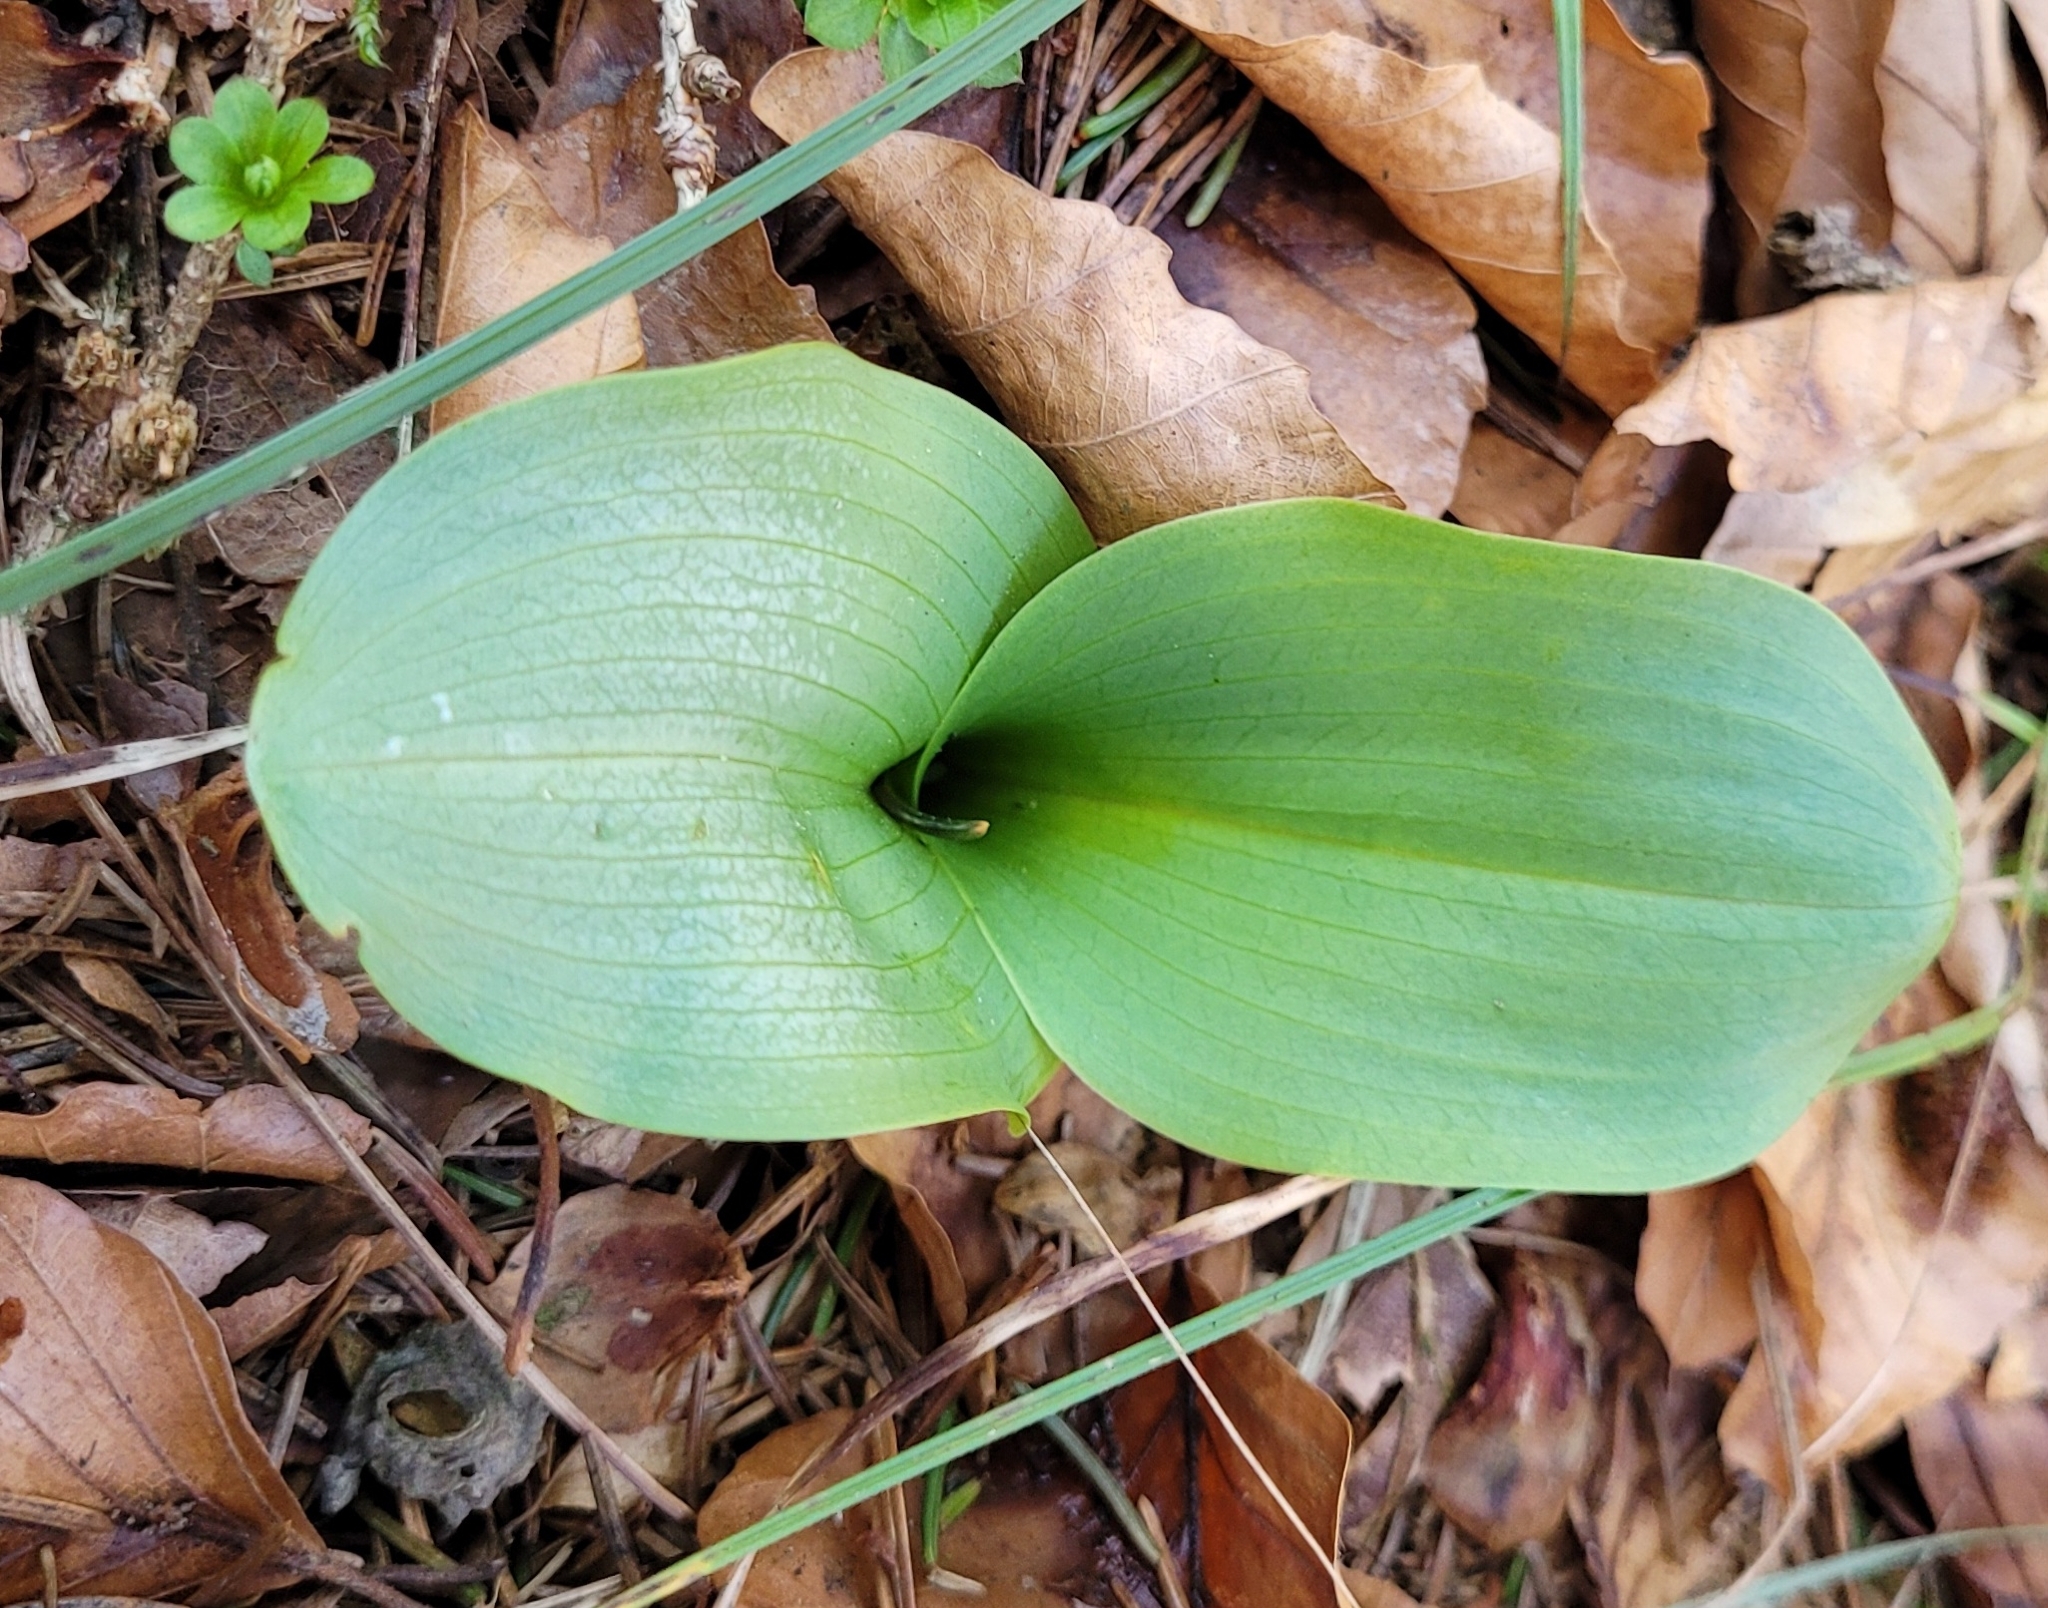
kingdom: Plantae
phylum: Tracheophyta
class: Liliopsida
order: Asparagales
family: Orchidaceae
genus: Neottia
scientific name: Neottia ovata
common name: Common twayblade
